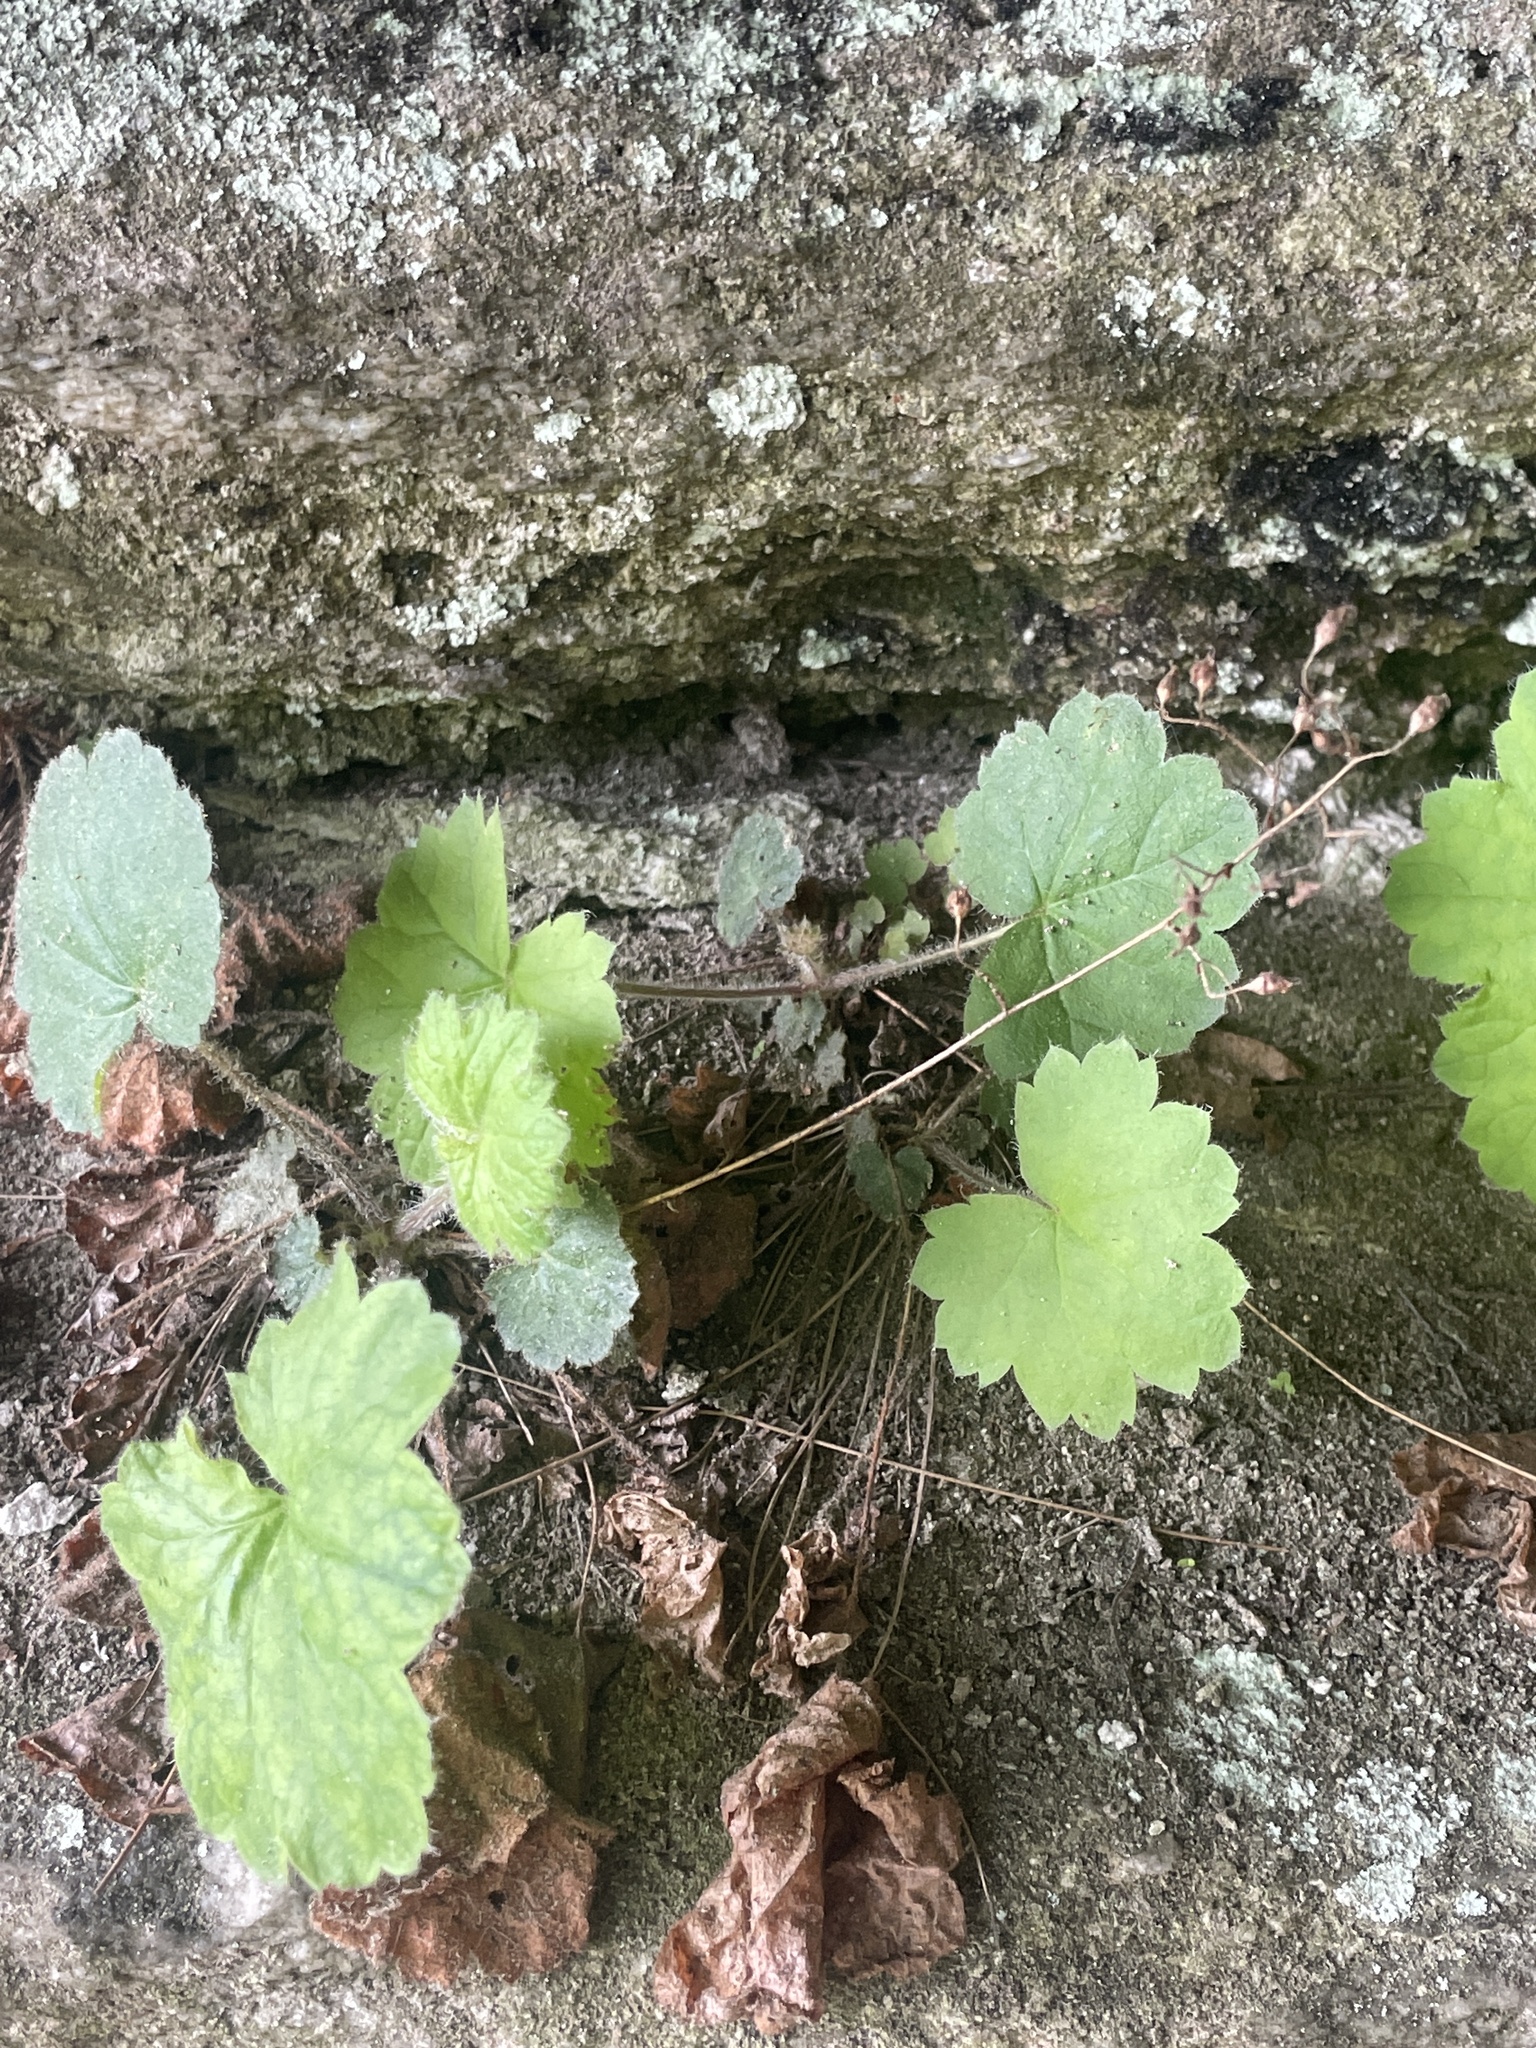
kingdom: Plantae
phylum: Tracheophyta
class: Magnoliopsida
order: Saxifragales
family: Saxifragaceae
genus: Heuchera
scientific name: Heuchera parviflora
